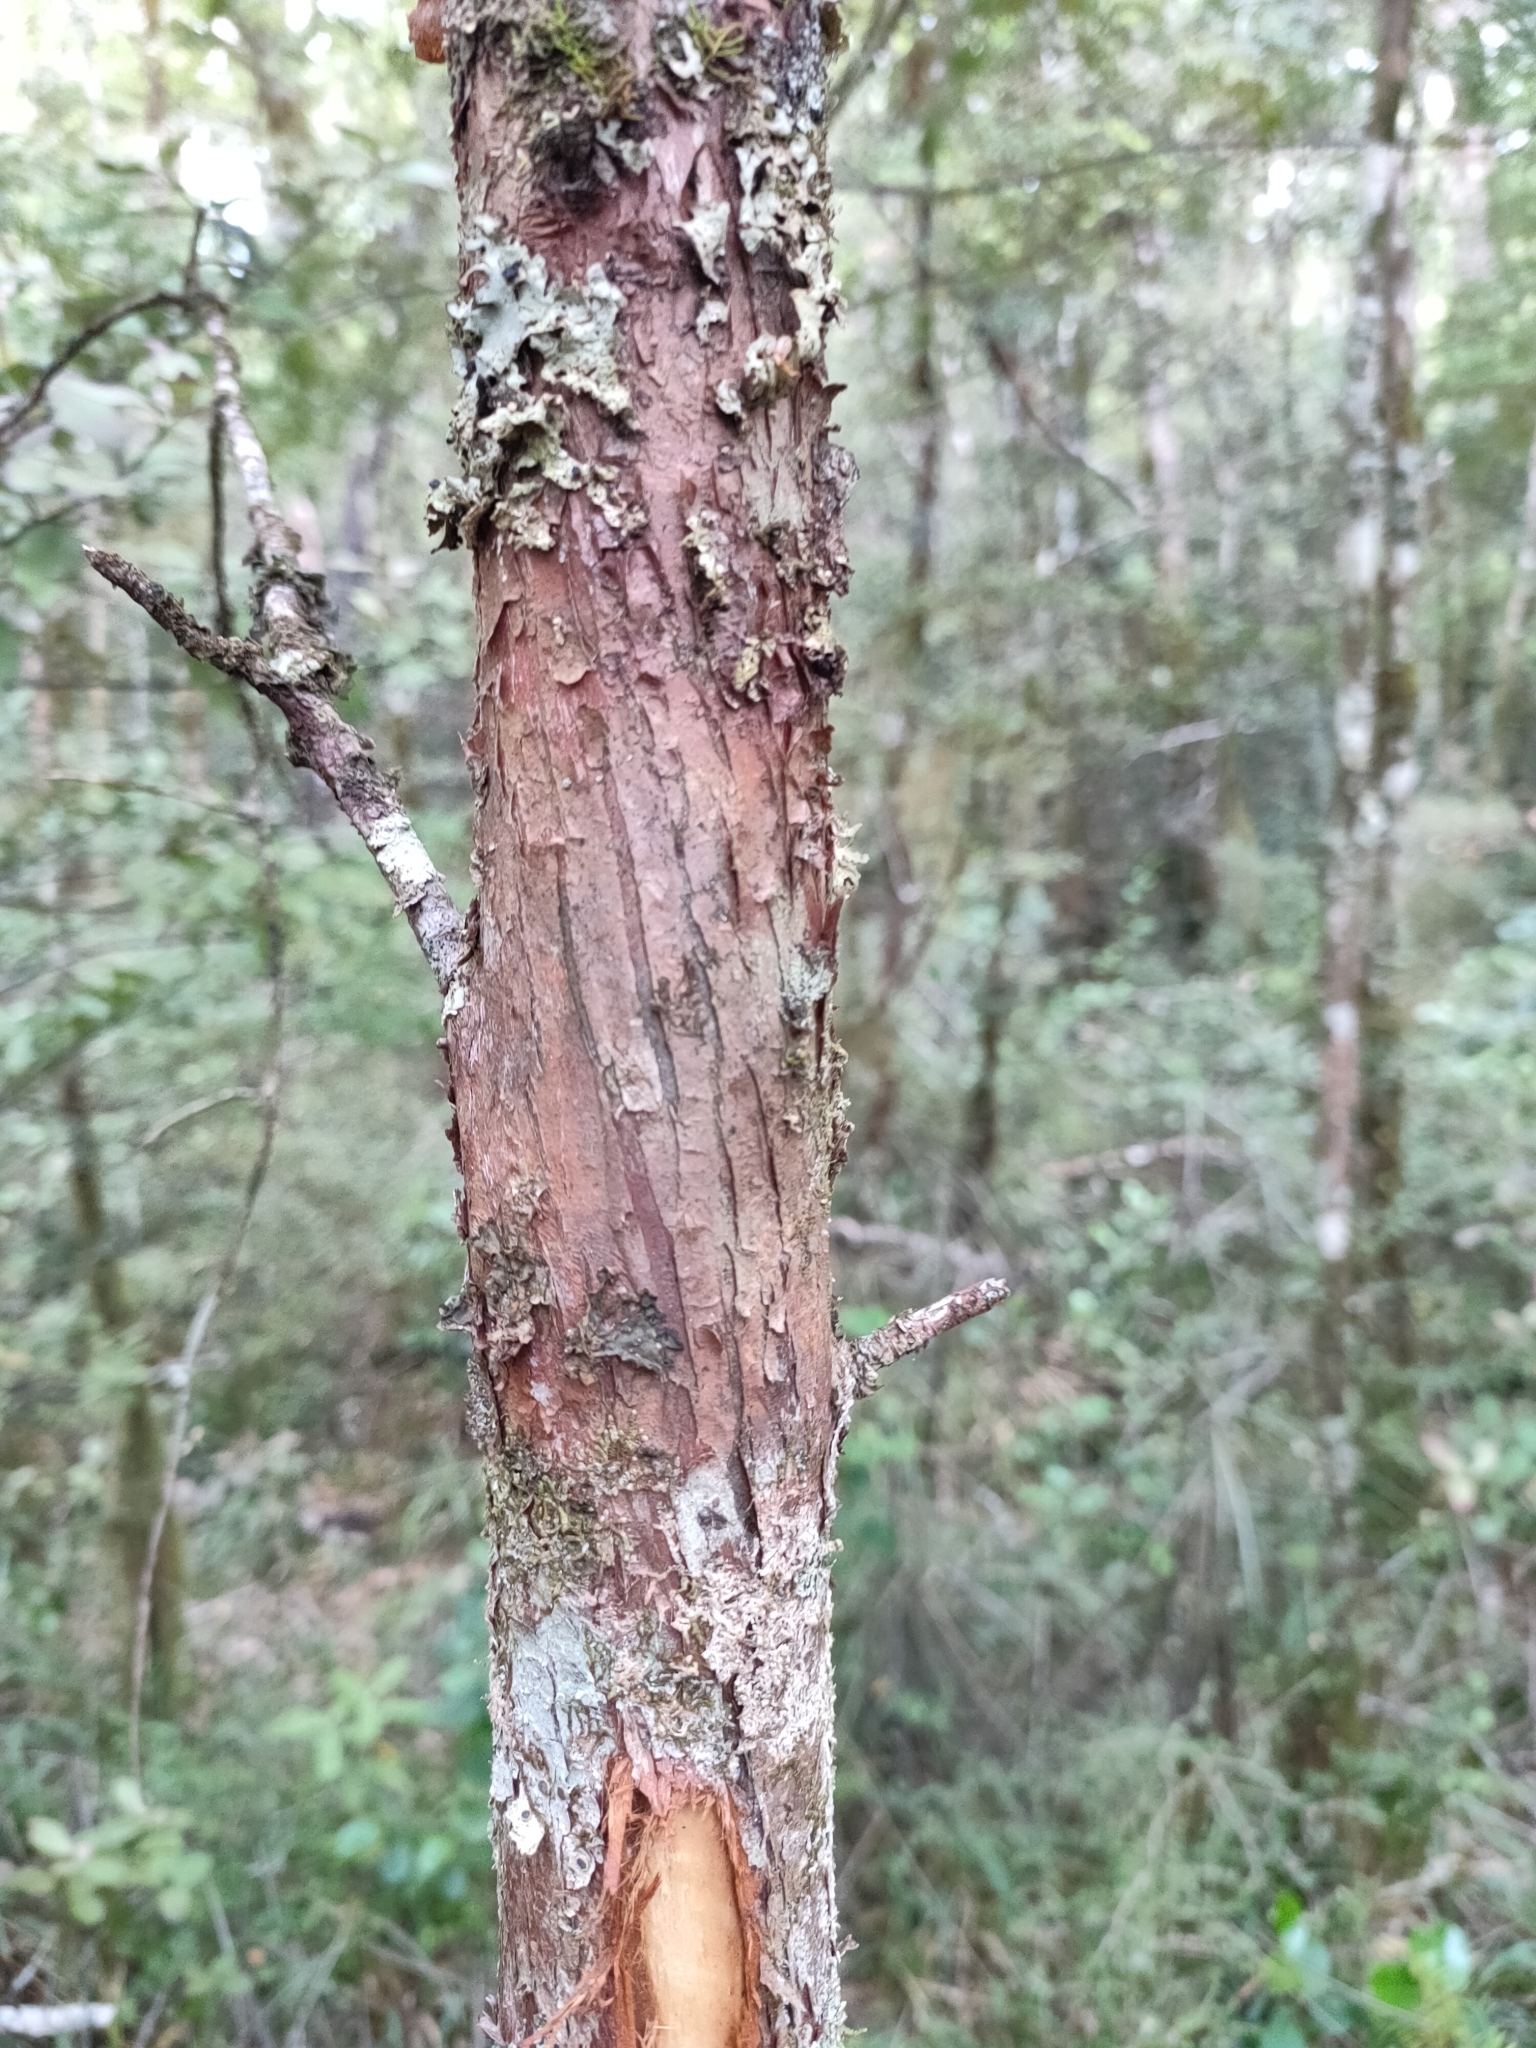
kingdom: Plantae
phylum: Tracheophyta
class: Pinopsida
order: Pinales
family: Podocarpaceae
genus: Podocarpus
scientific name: Podocarpus laetus
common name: Hall's totara
